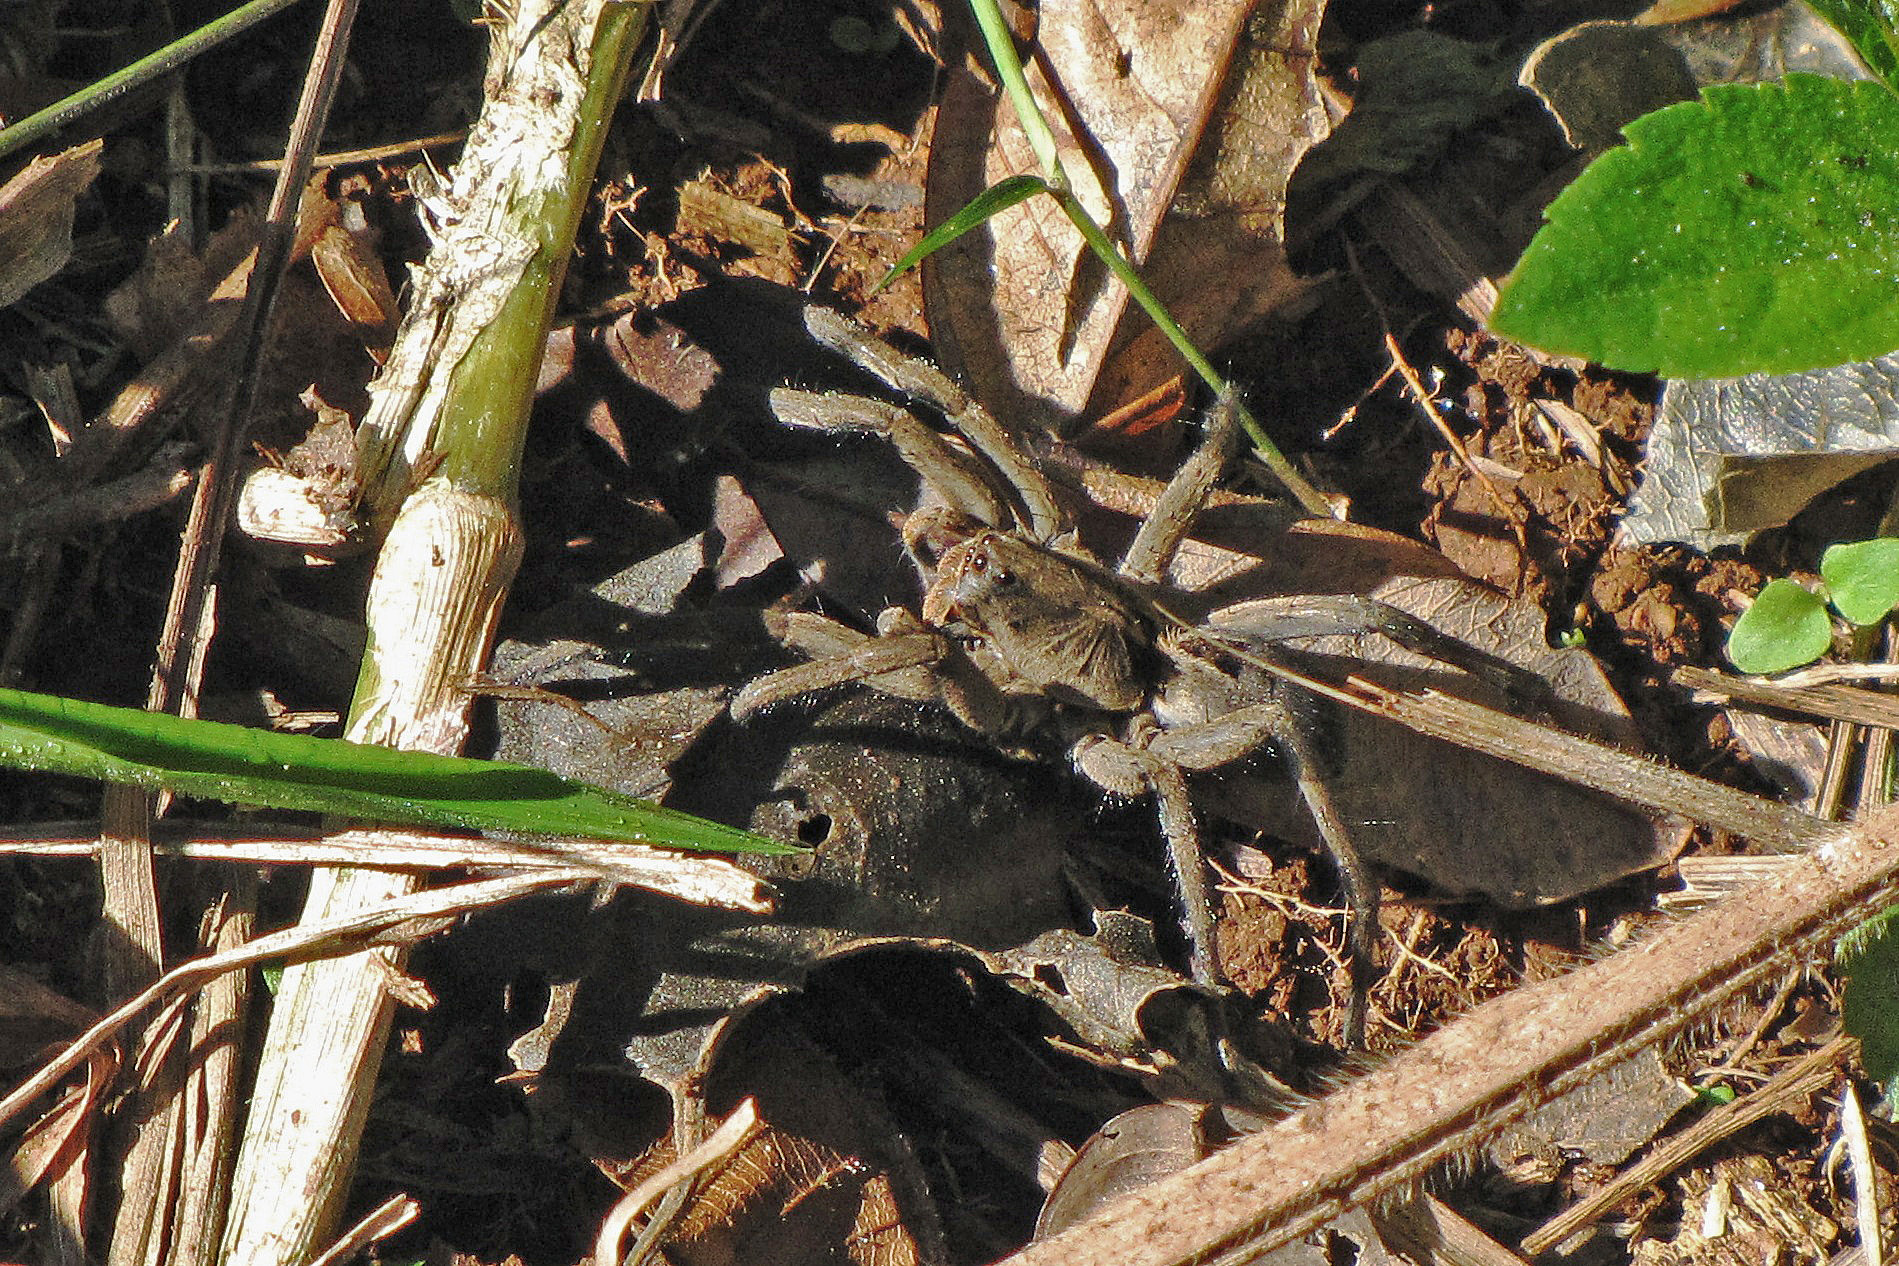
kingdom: Animalia
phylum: Arthropoda
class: Arachnida
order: Araneae
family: Lycosidae
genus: Lycosa
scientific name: Lycosa erythrognatha
